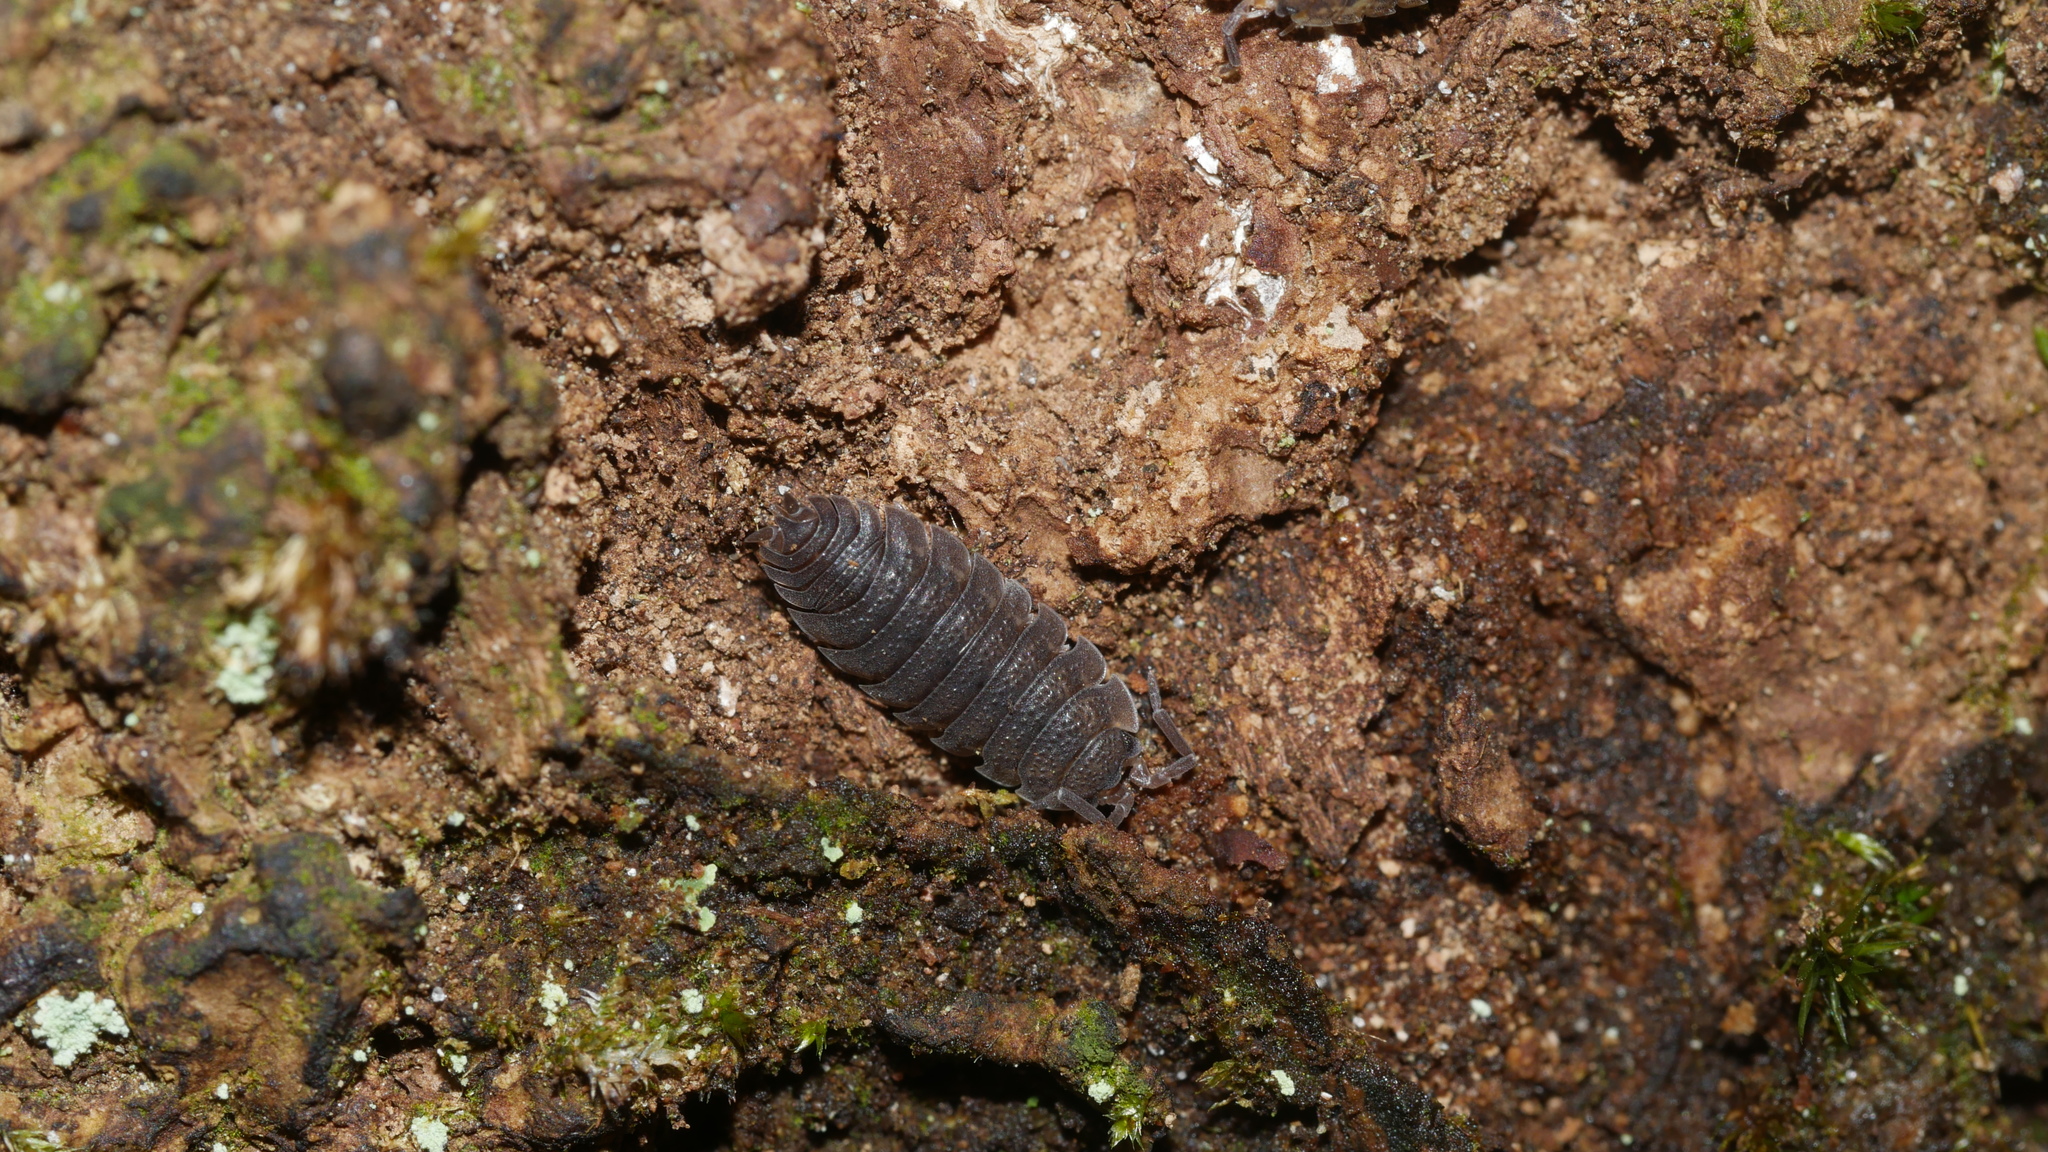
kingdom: Animalia
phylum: Arthropoda
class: Malacostraca
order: Isopoda
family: Porcellionidae
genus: Porcellio
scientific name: Porcellio scaber
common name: Common rough woodlouse
